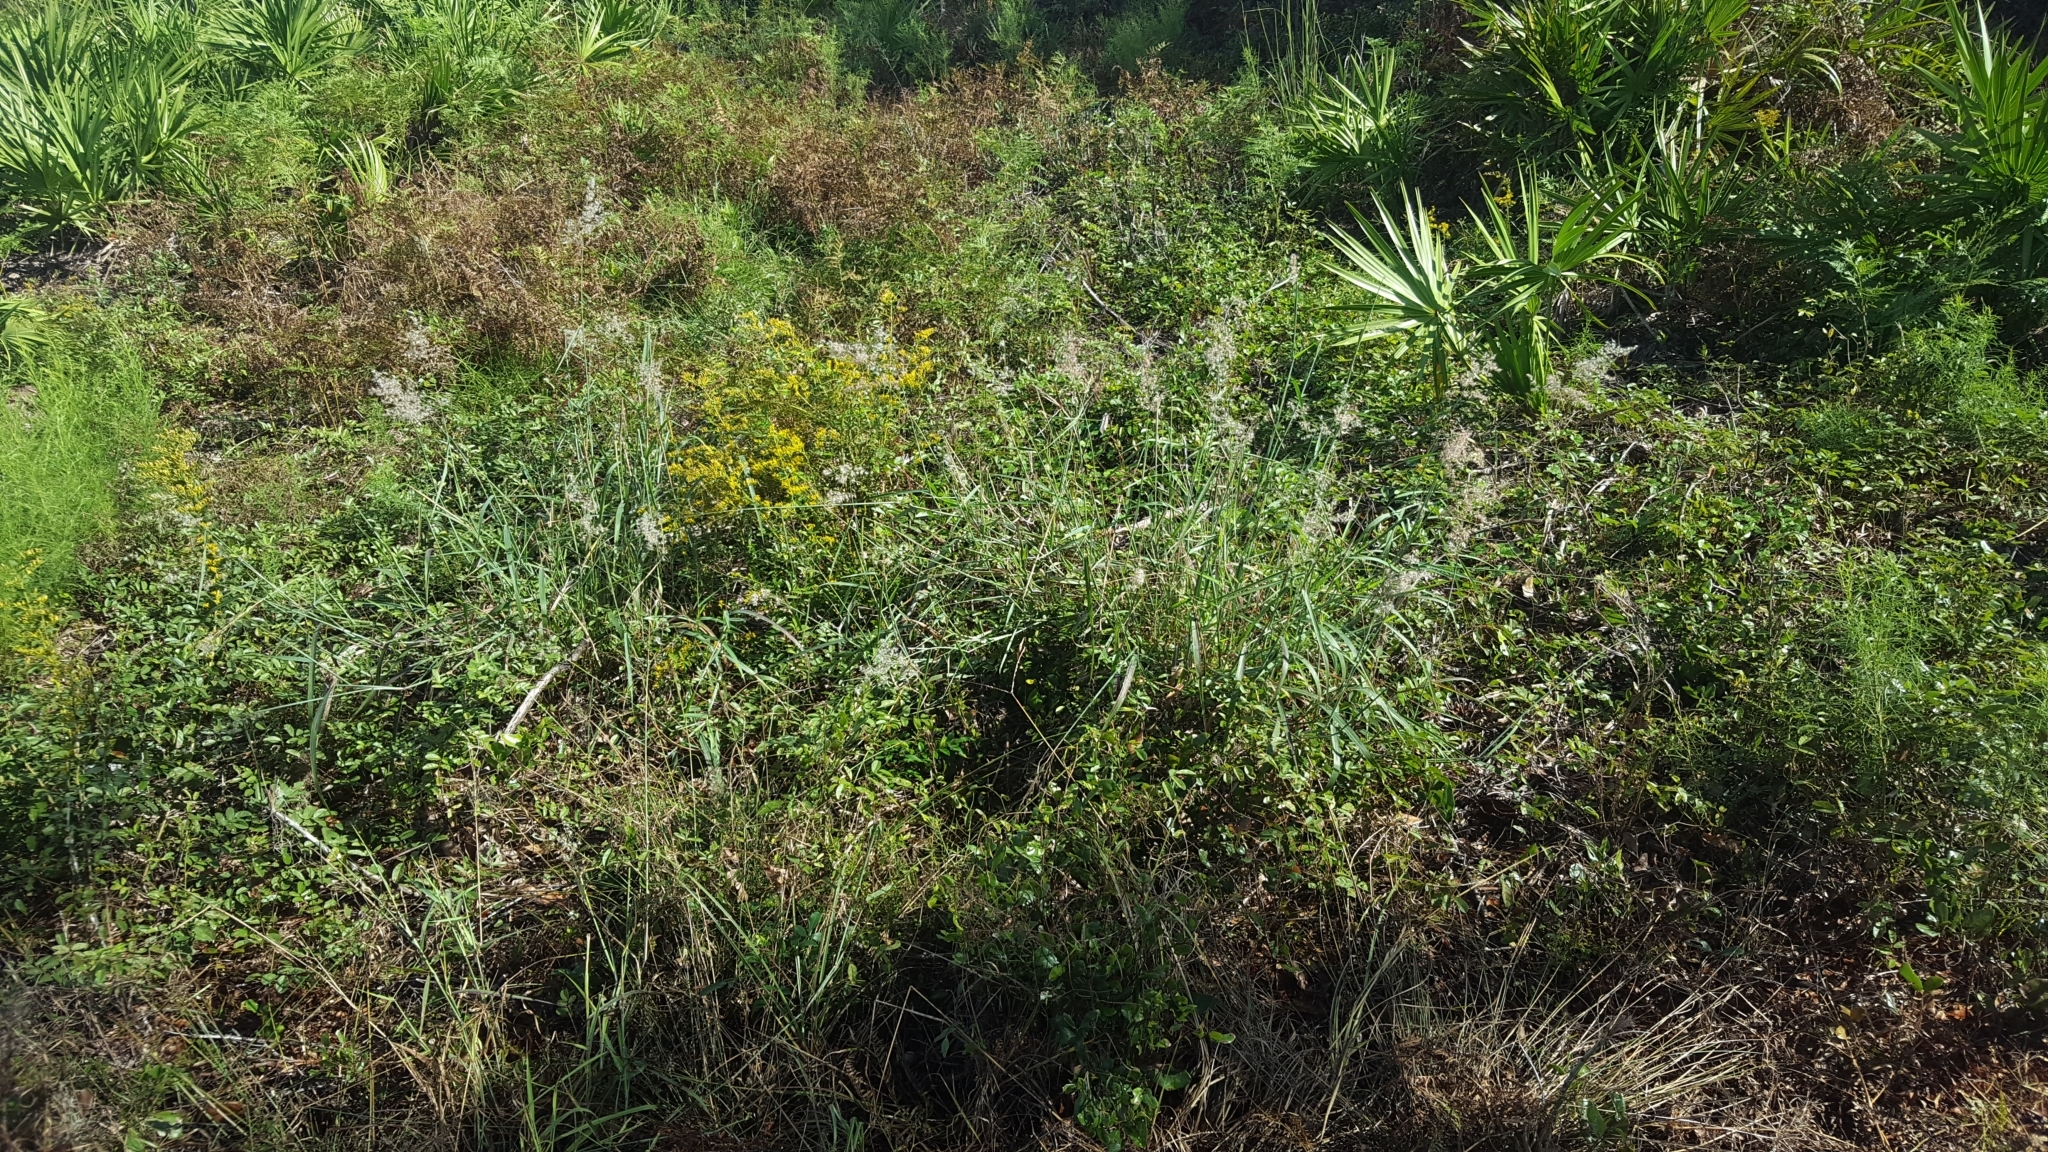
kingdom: Plantae
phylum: Tracheophyta
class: Liliopsida
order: Poales
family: Poaceae
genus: Melinis
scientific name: Melinis repens
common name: Rose natal grass
